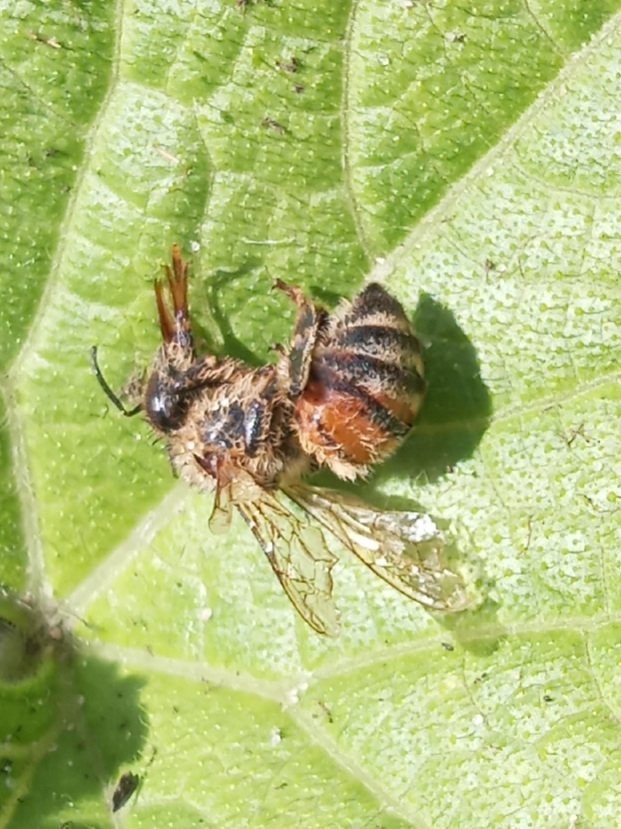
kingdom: Animalia
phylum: Arthropoda
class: Insecta
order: Hymenoptera
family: Apidae
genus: Apis
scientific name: Apis mellifera
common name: Honey bee
